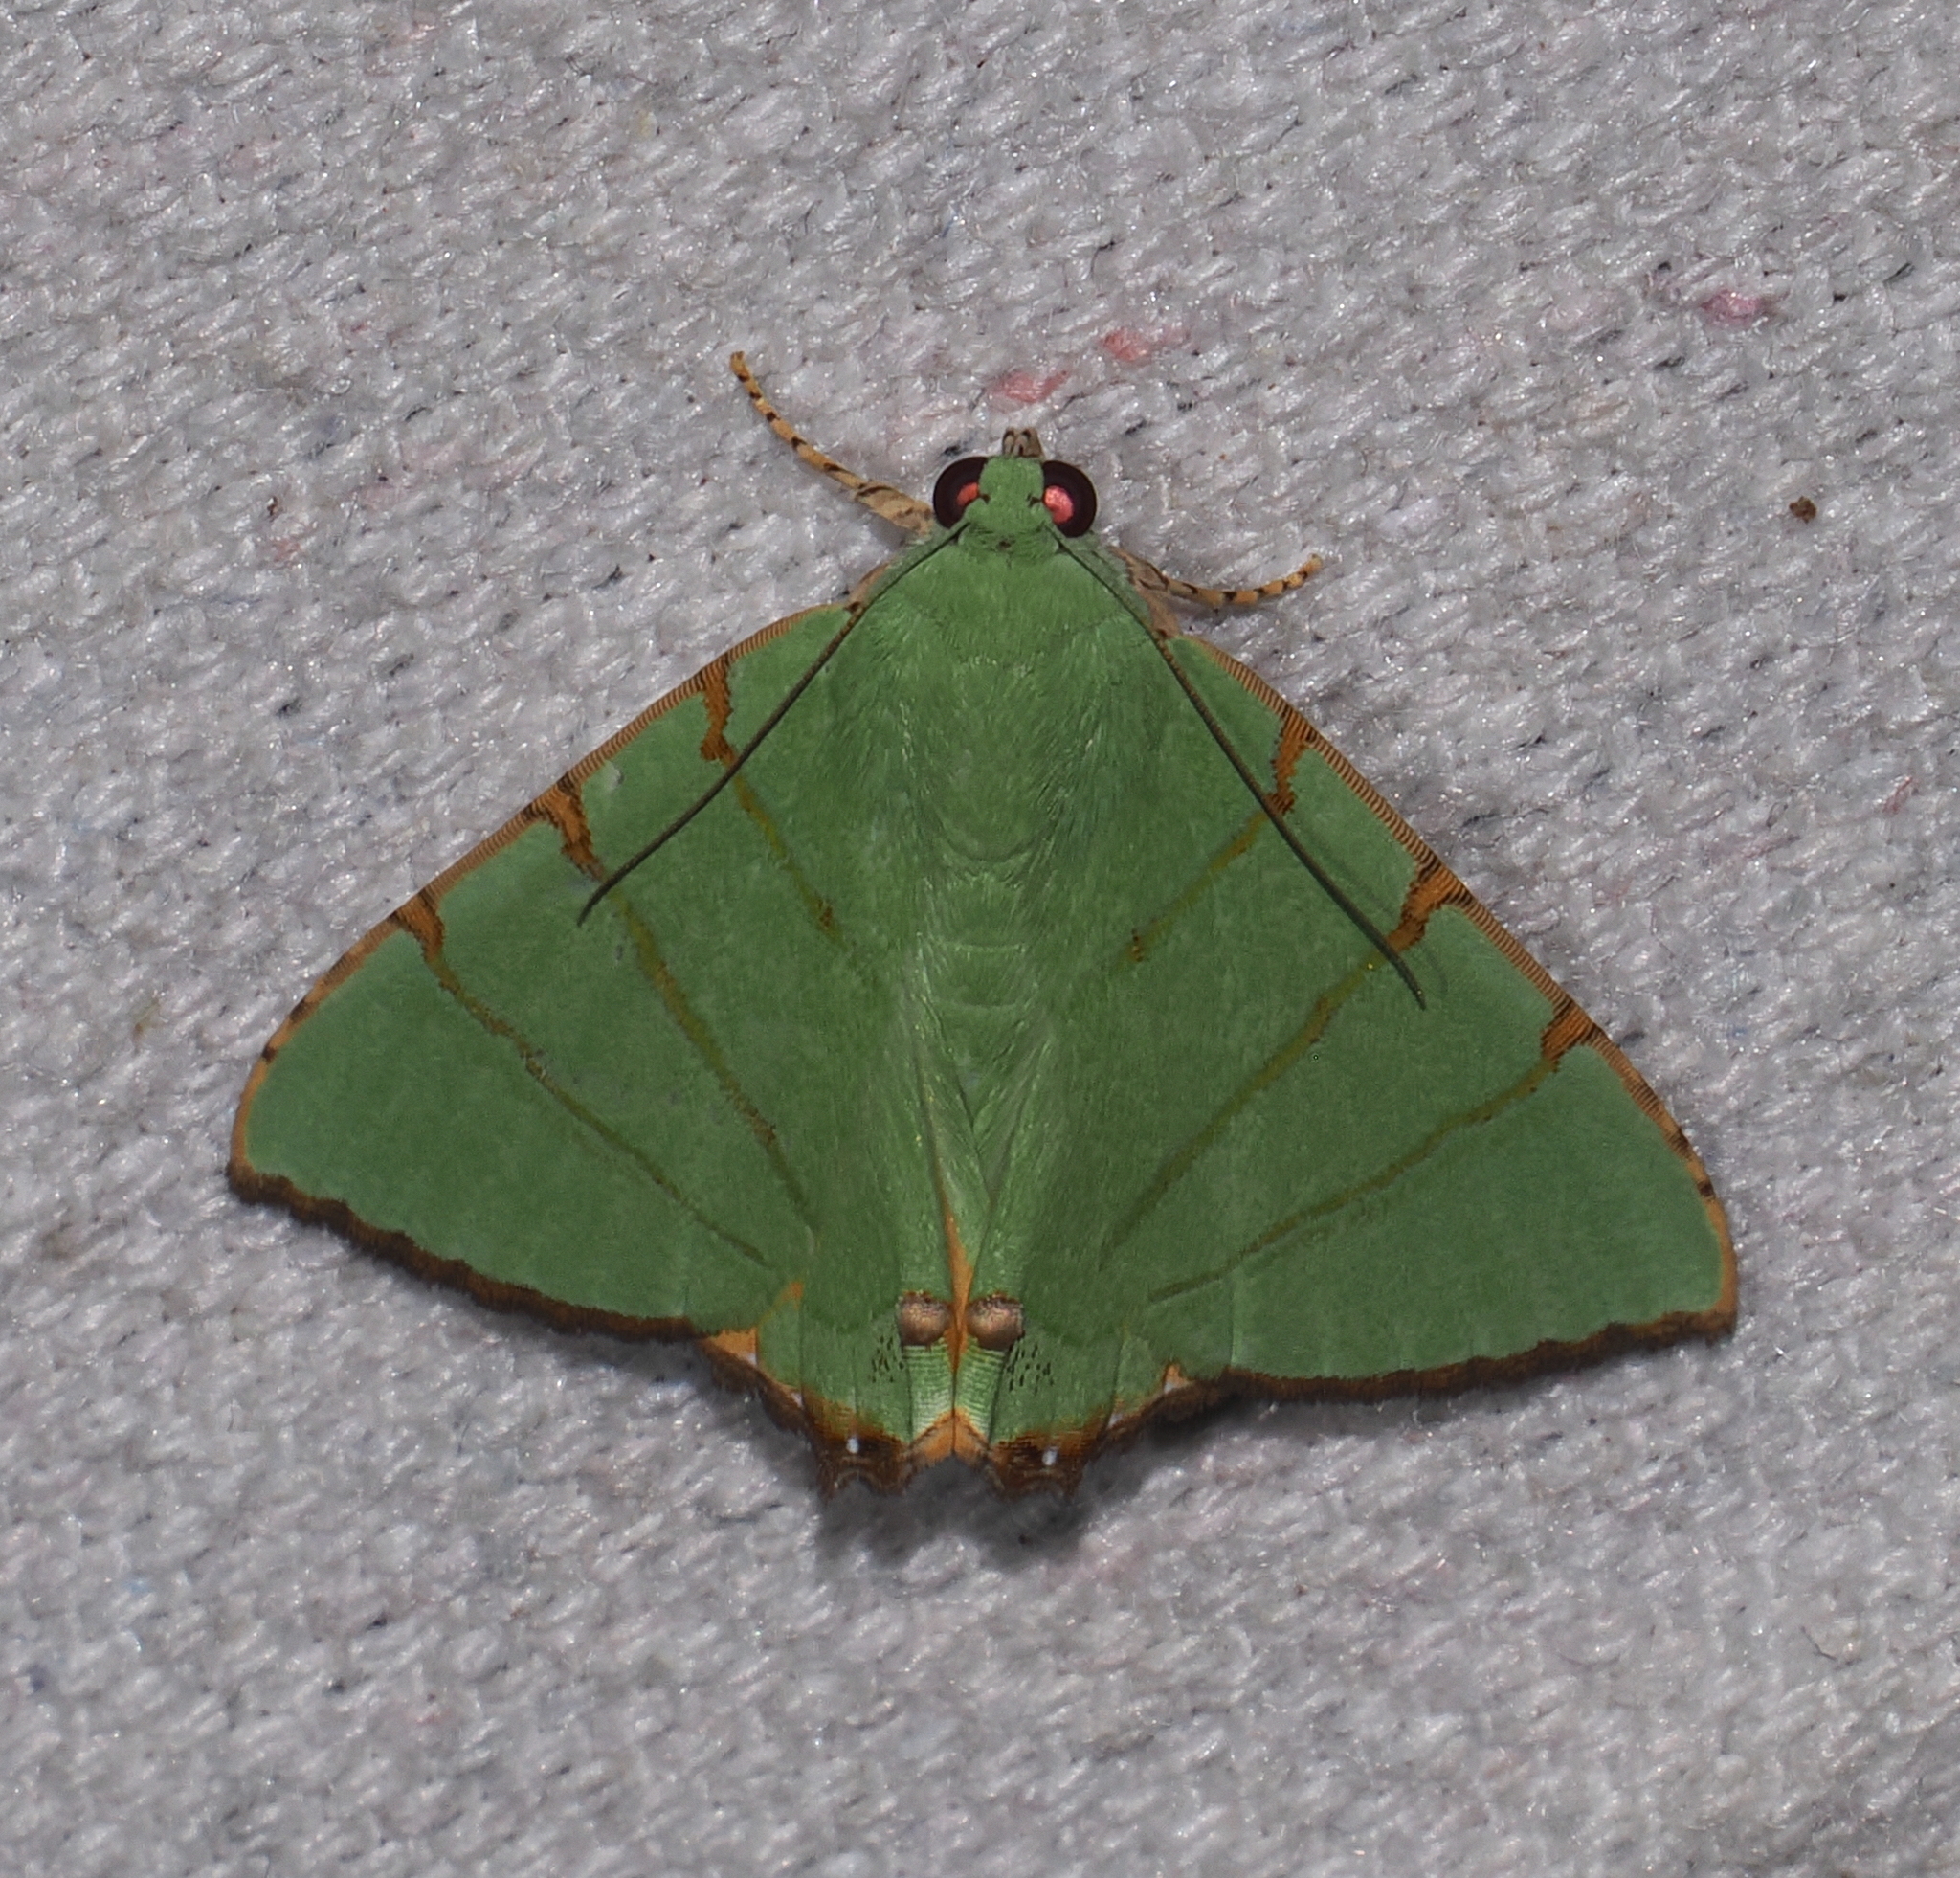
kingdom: Animalia
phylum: Arthropoda
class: Insecta
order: Lepidoptera
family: Erebidae
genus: Eulepidotis
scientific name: Eulepidotis viridissima
